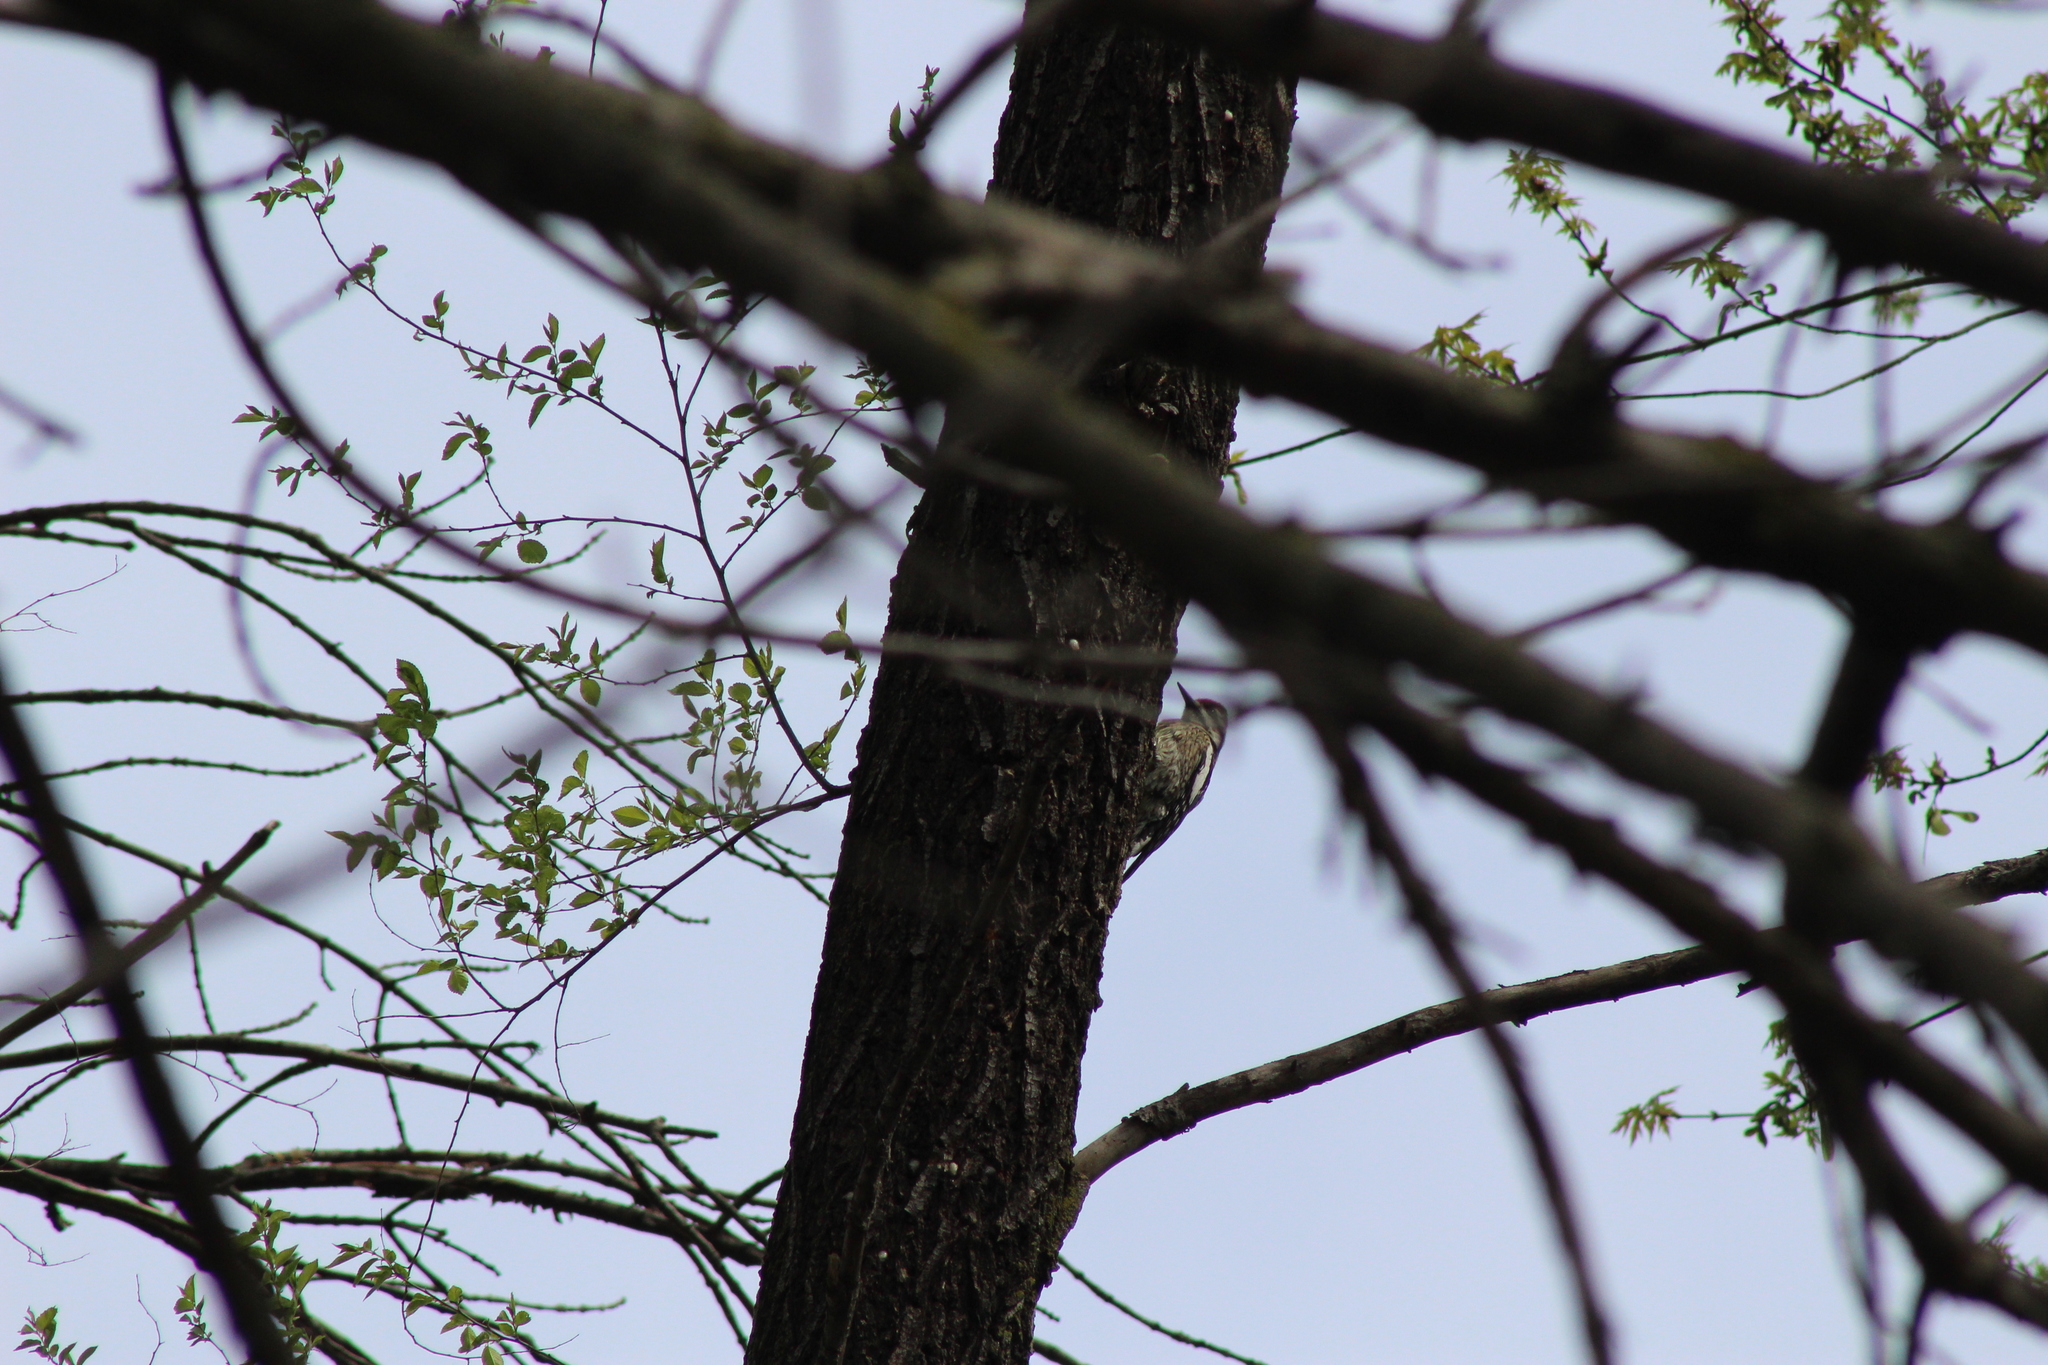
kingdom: Animalia
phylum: Chordata
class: Aves
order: Piciformes
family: Picidae
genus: Sphyrapicus
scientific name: Sphyrapicus varius
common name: Yellow-bellied sapsucker
